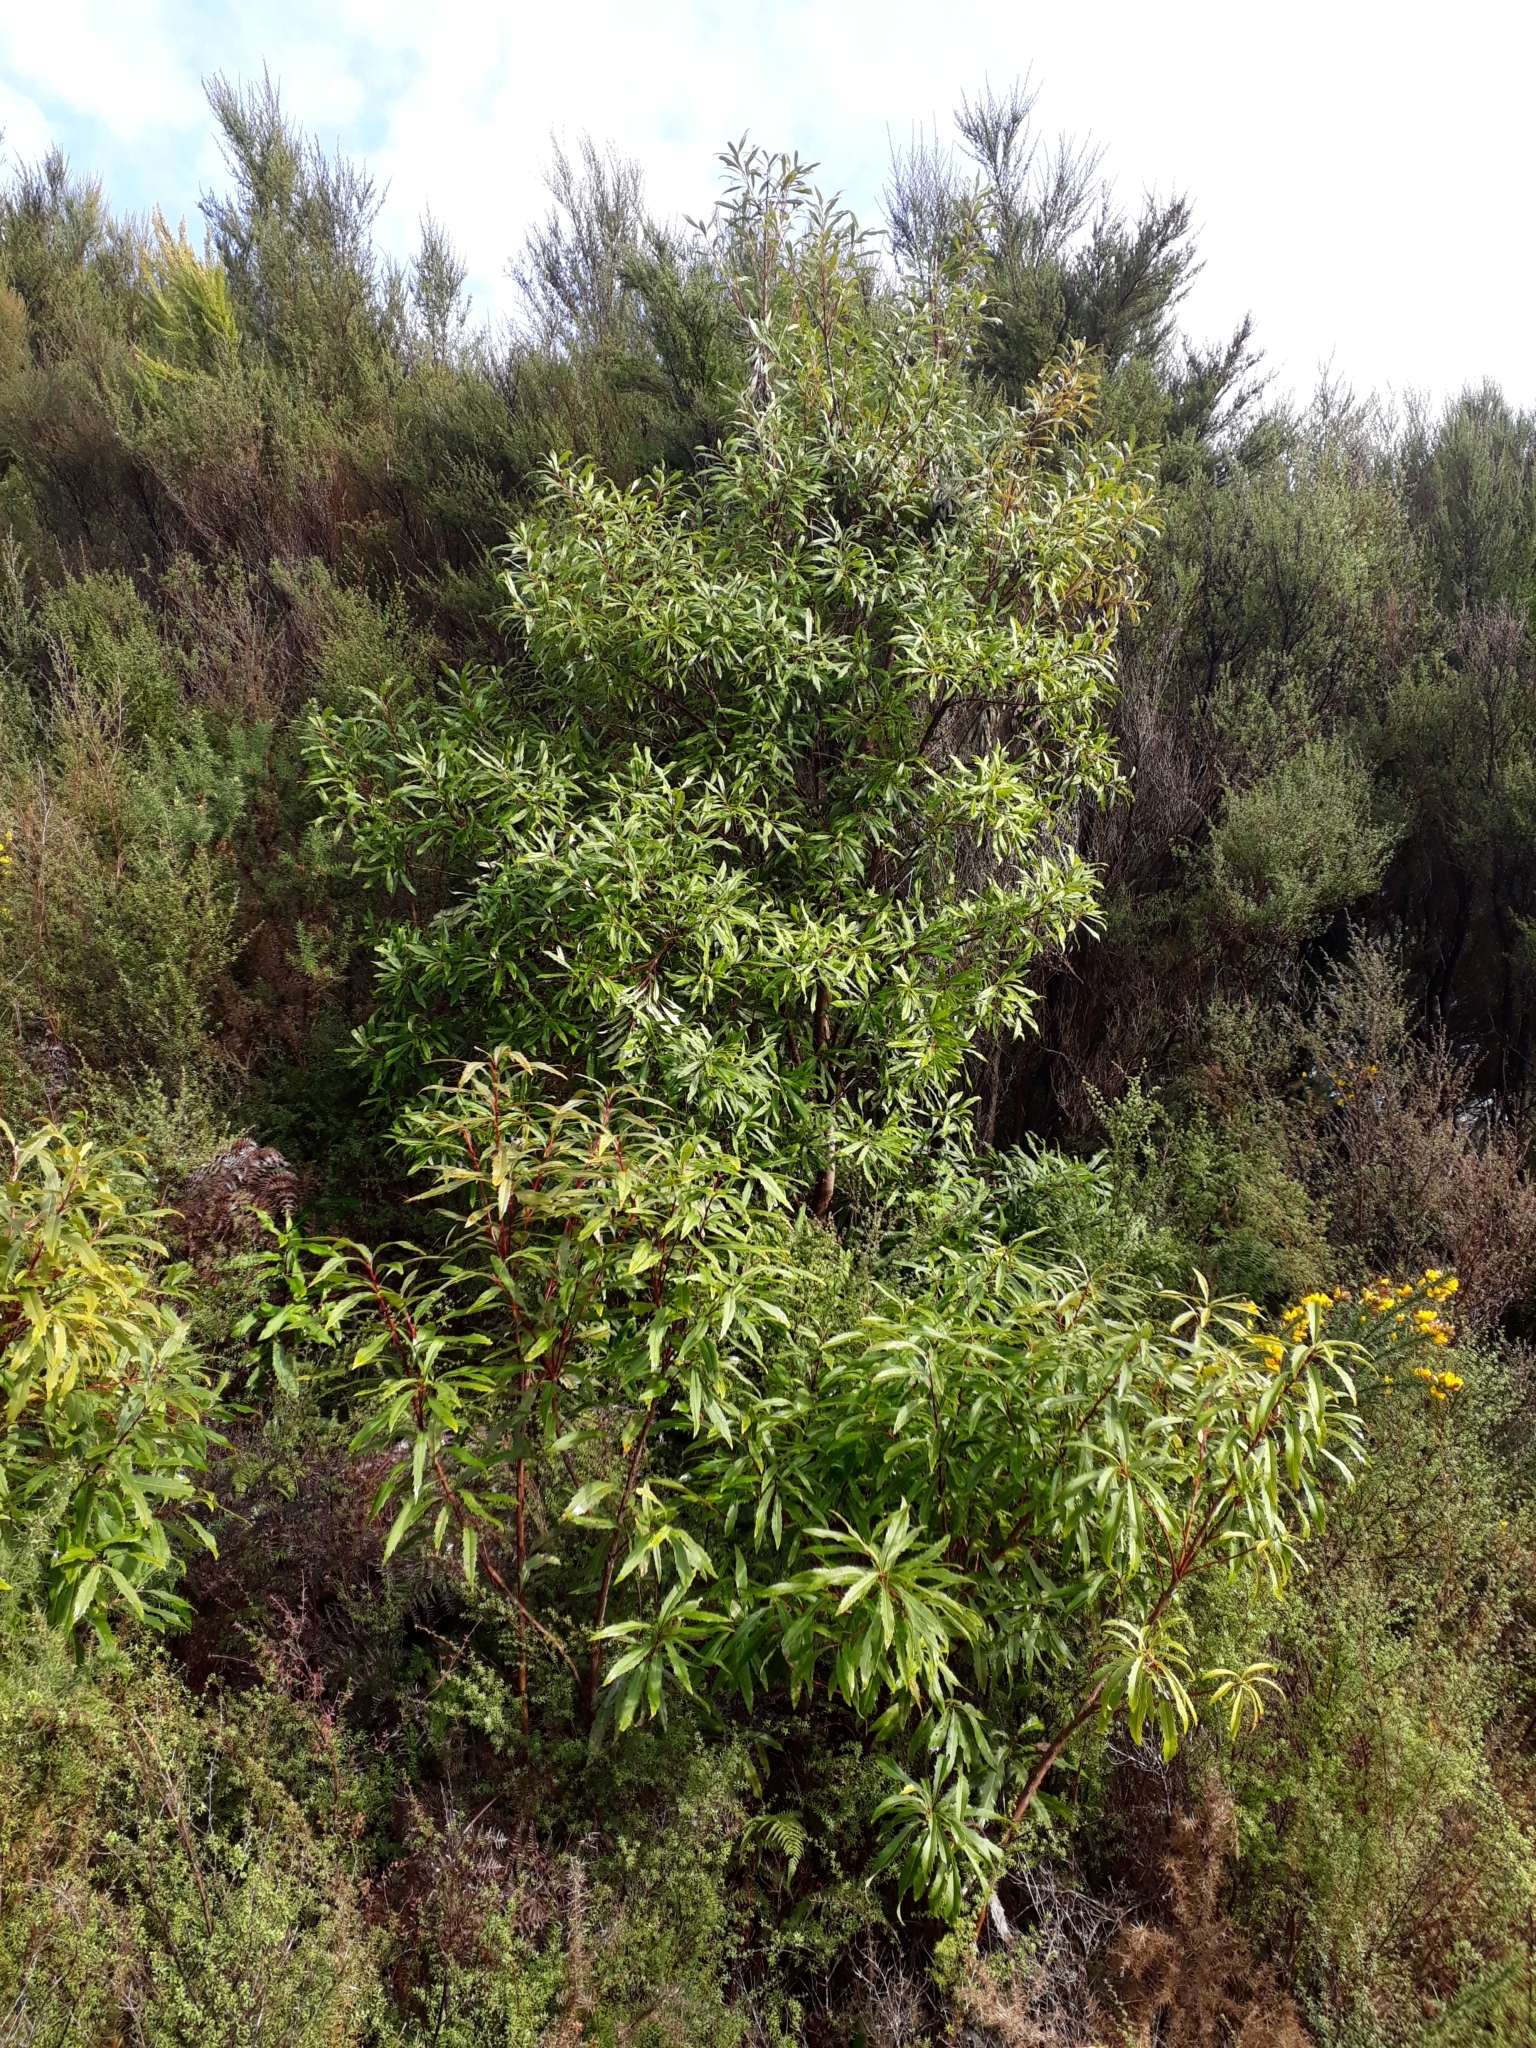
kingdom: Plantae
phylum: Tracheophyta
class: Magnoliopsida
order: Proteales
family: Proteaceae
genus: Lomatia
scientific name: Lomatia fraseri
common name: Forest lomatia
